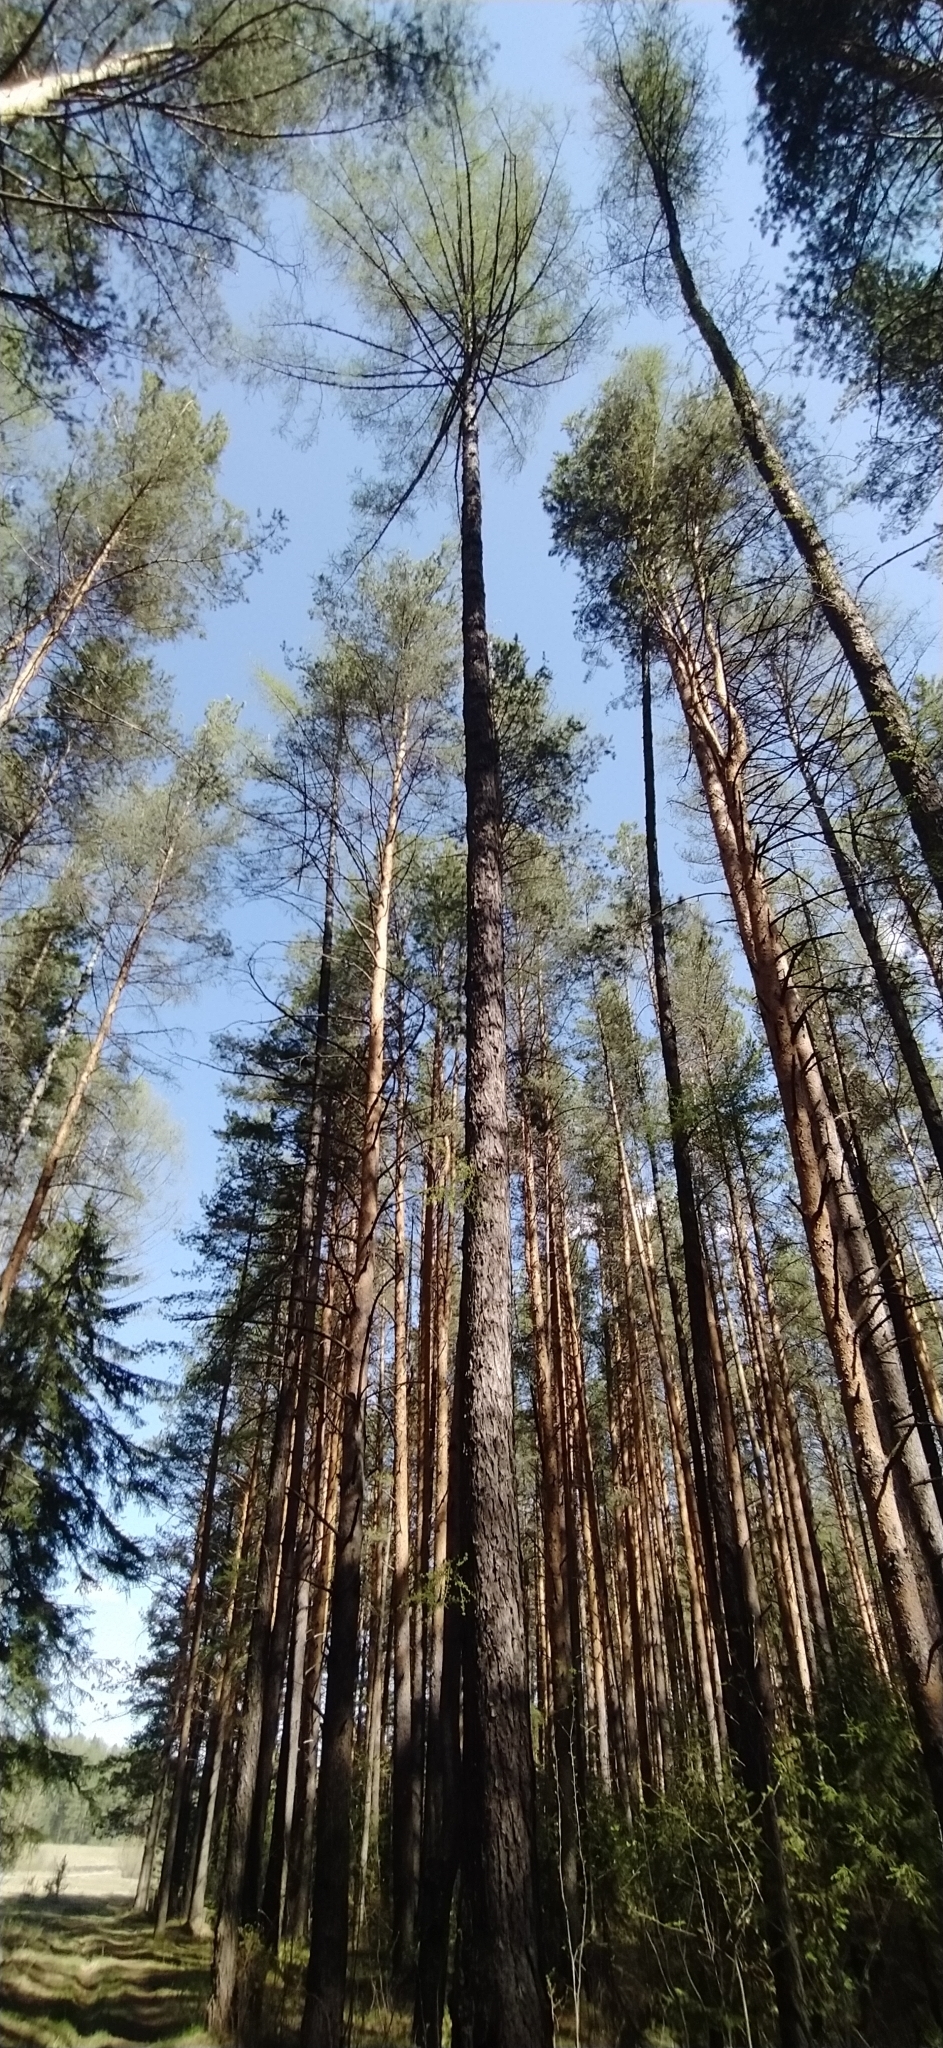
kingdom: Plantae
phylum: Tracheophyta
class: Pinopsida
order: Pinales
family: Pinaceae
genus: Larix
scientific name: Larix sibirica
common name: Siberian larch
